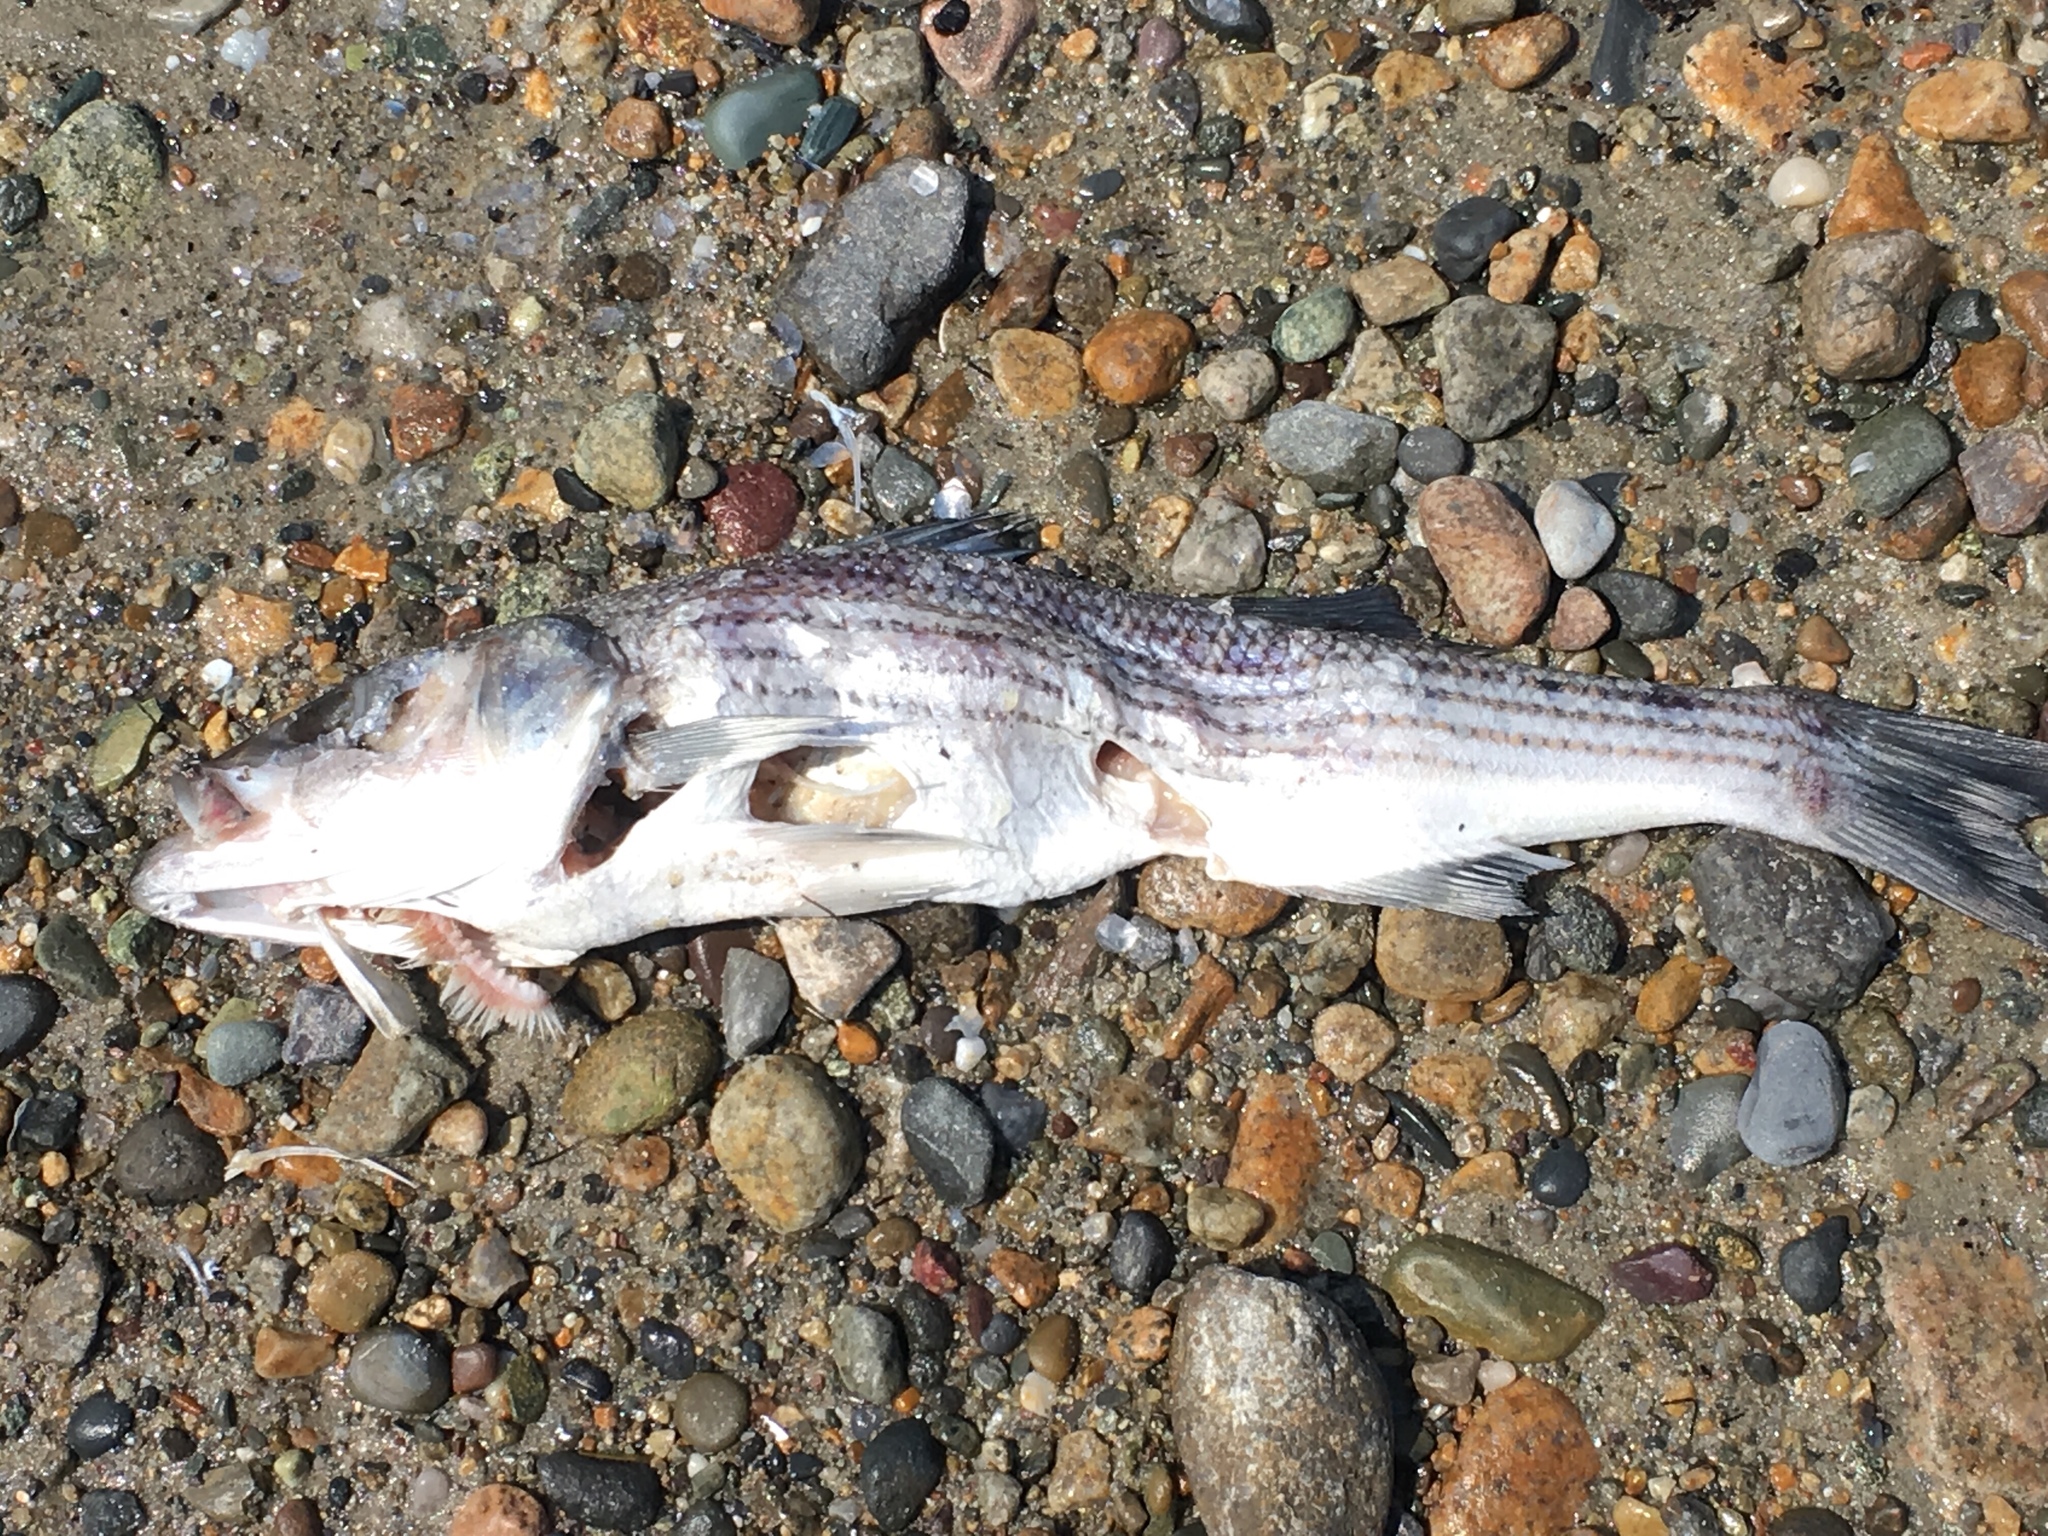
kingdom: Animalia
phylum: Chordata
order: Perciformes
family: Moronidae
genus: Morone
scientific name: Morone saxatilis
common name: Striped bass
